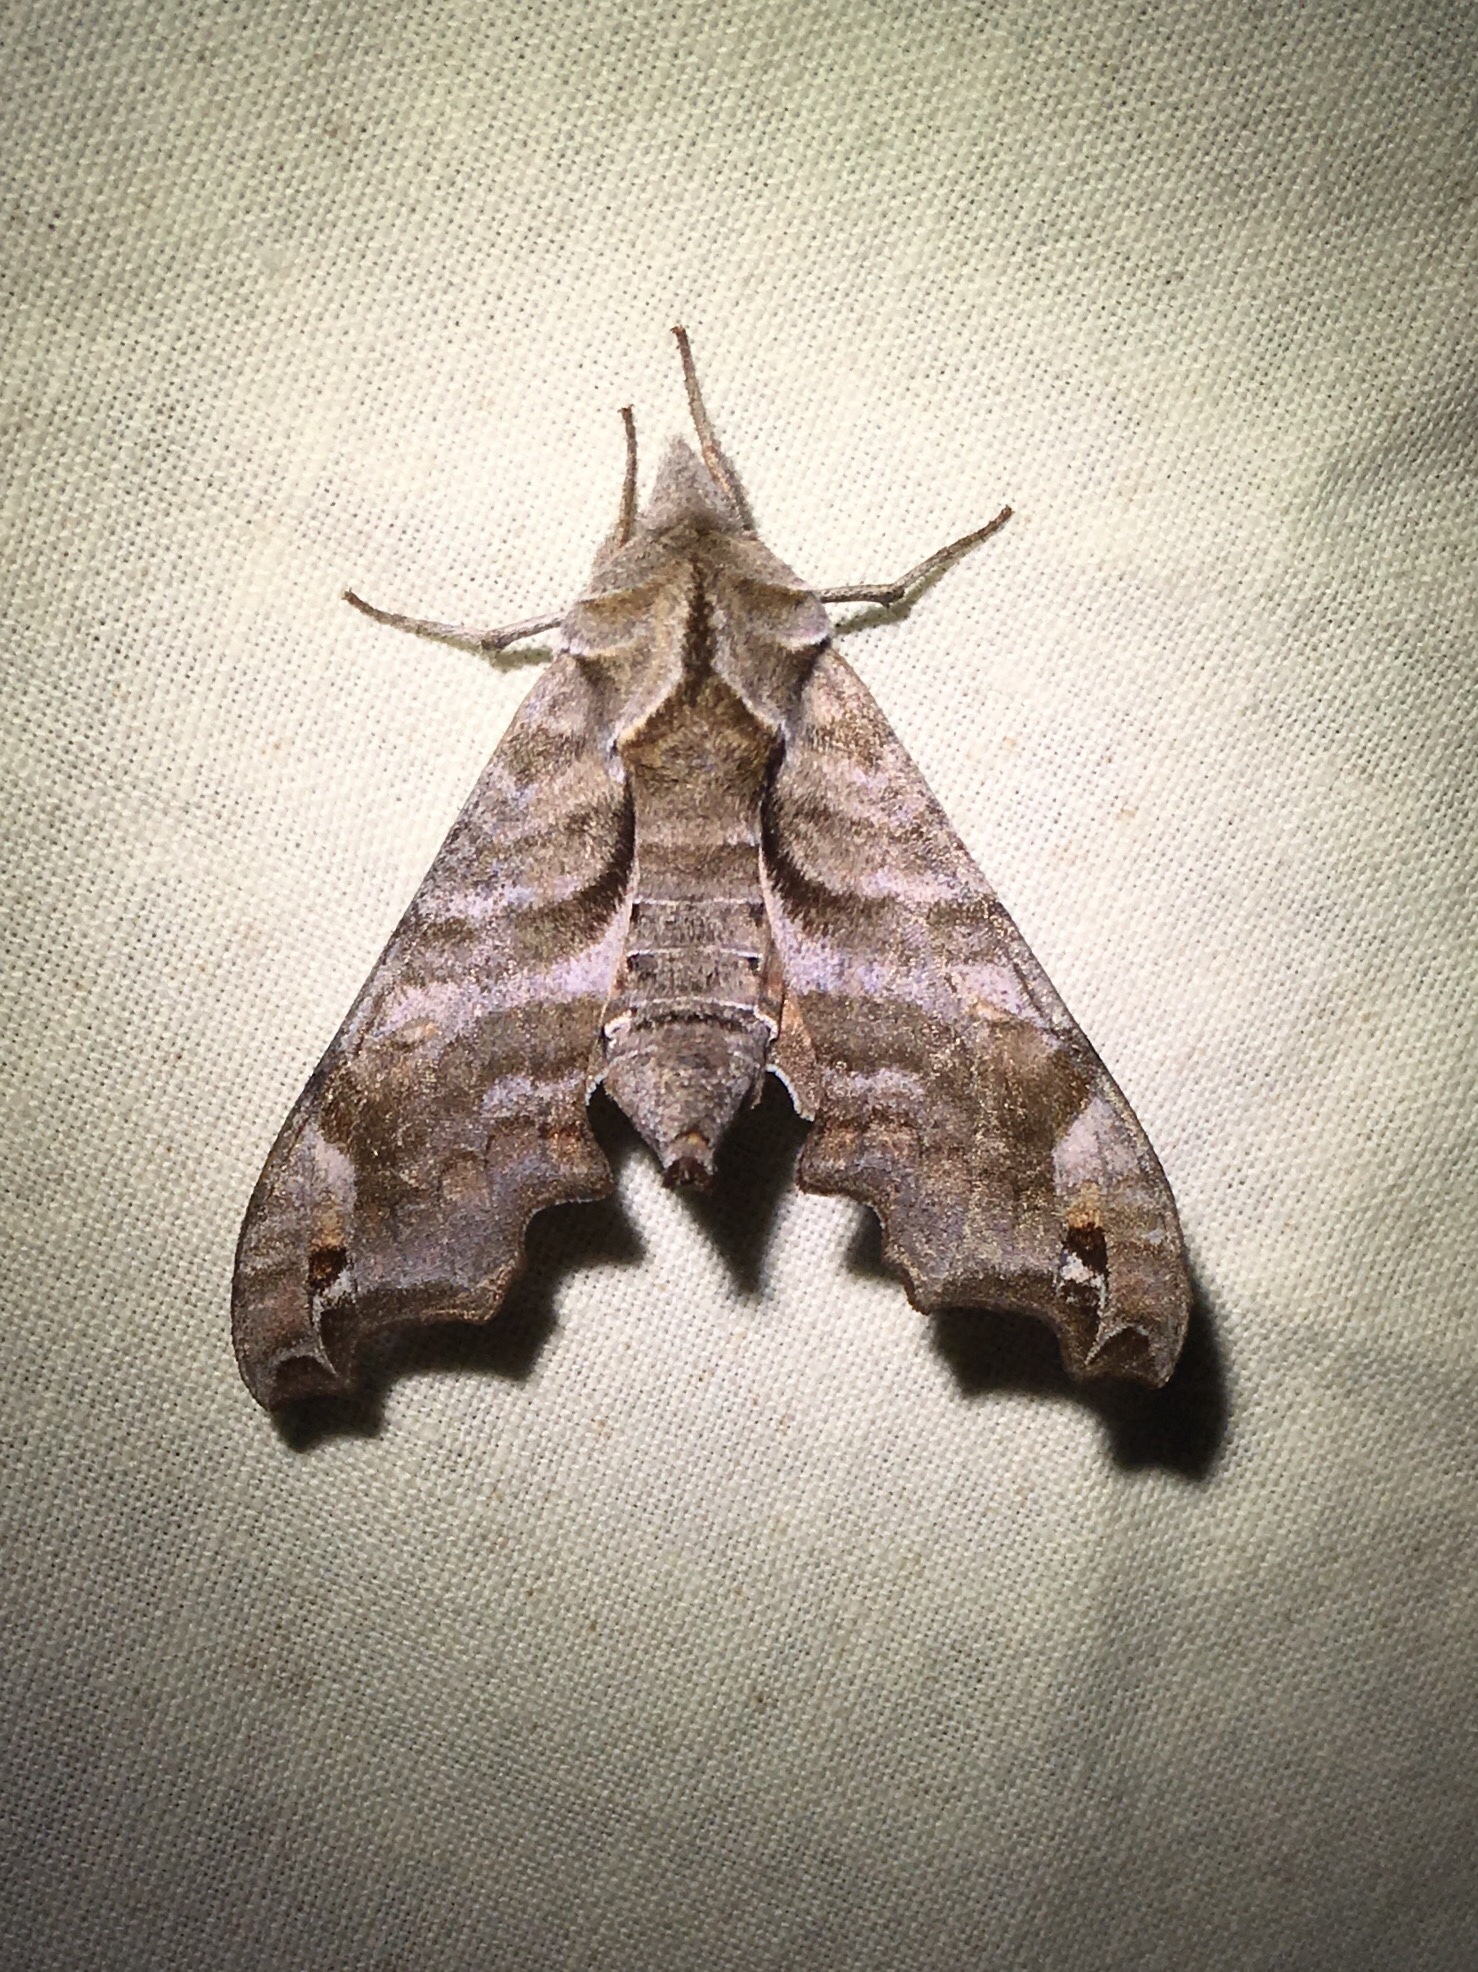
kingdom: Animalia
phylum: Arthropoda
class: Insecta
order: Lepidoptera
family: Sphingidae
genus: Deidamia
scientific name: Deidamia inscriptum
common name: Lettered sphinx
